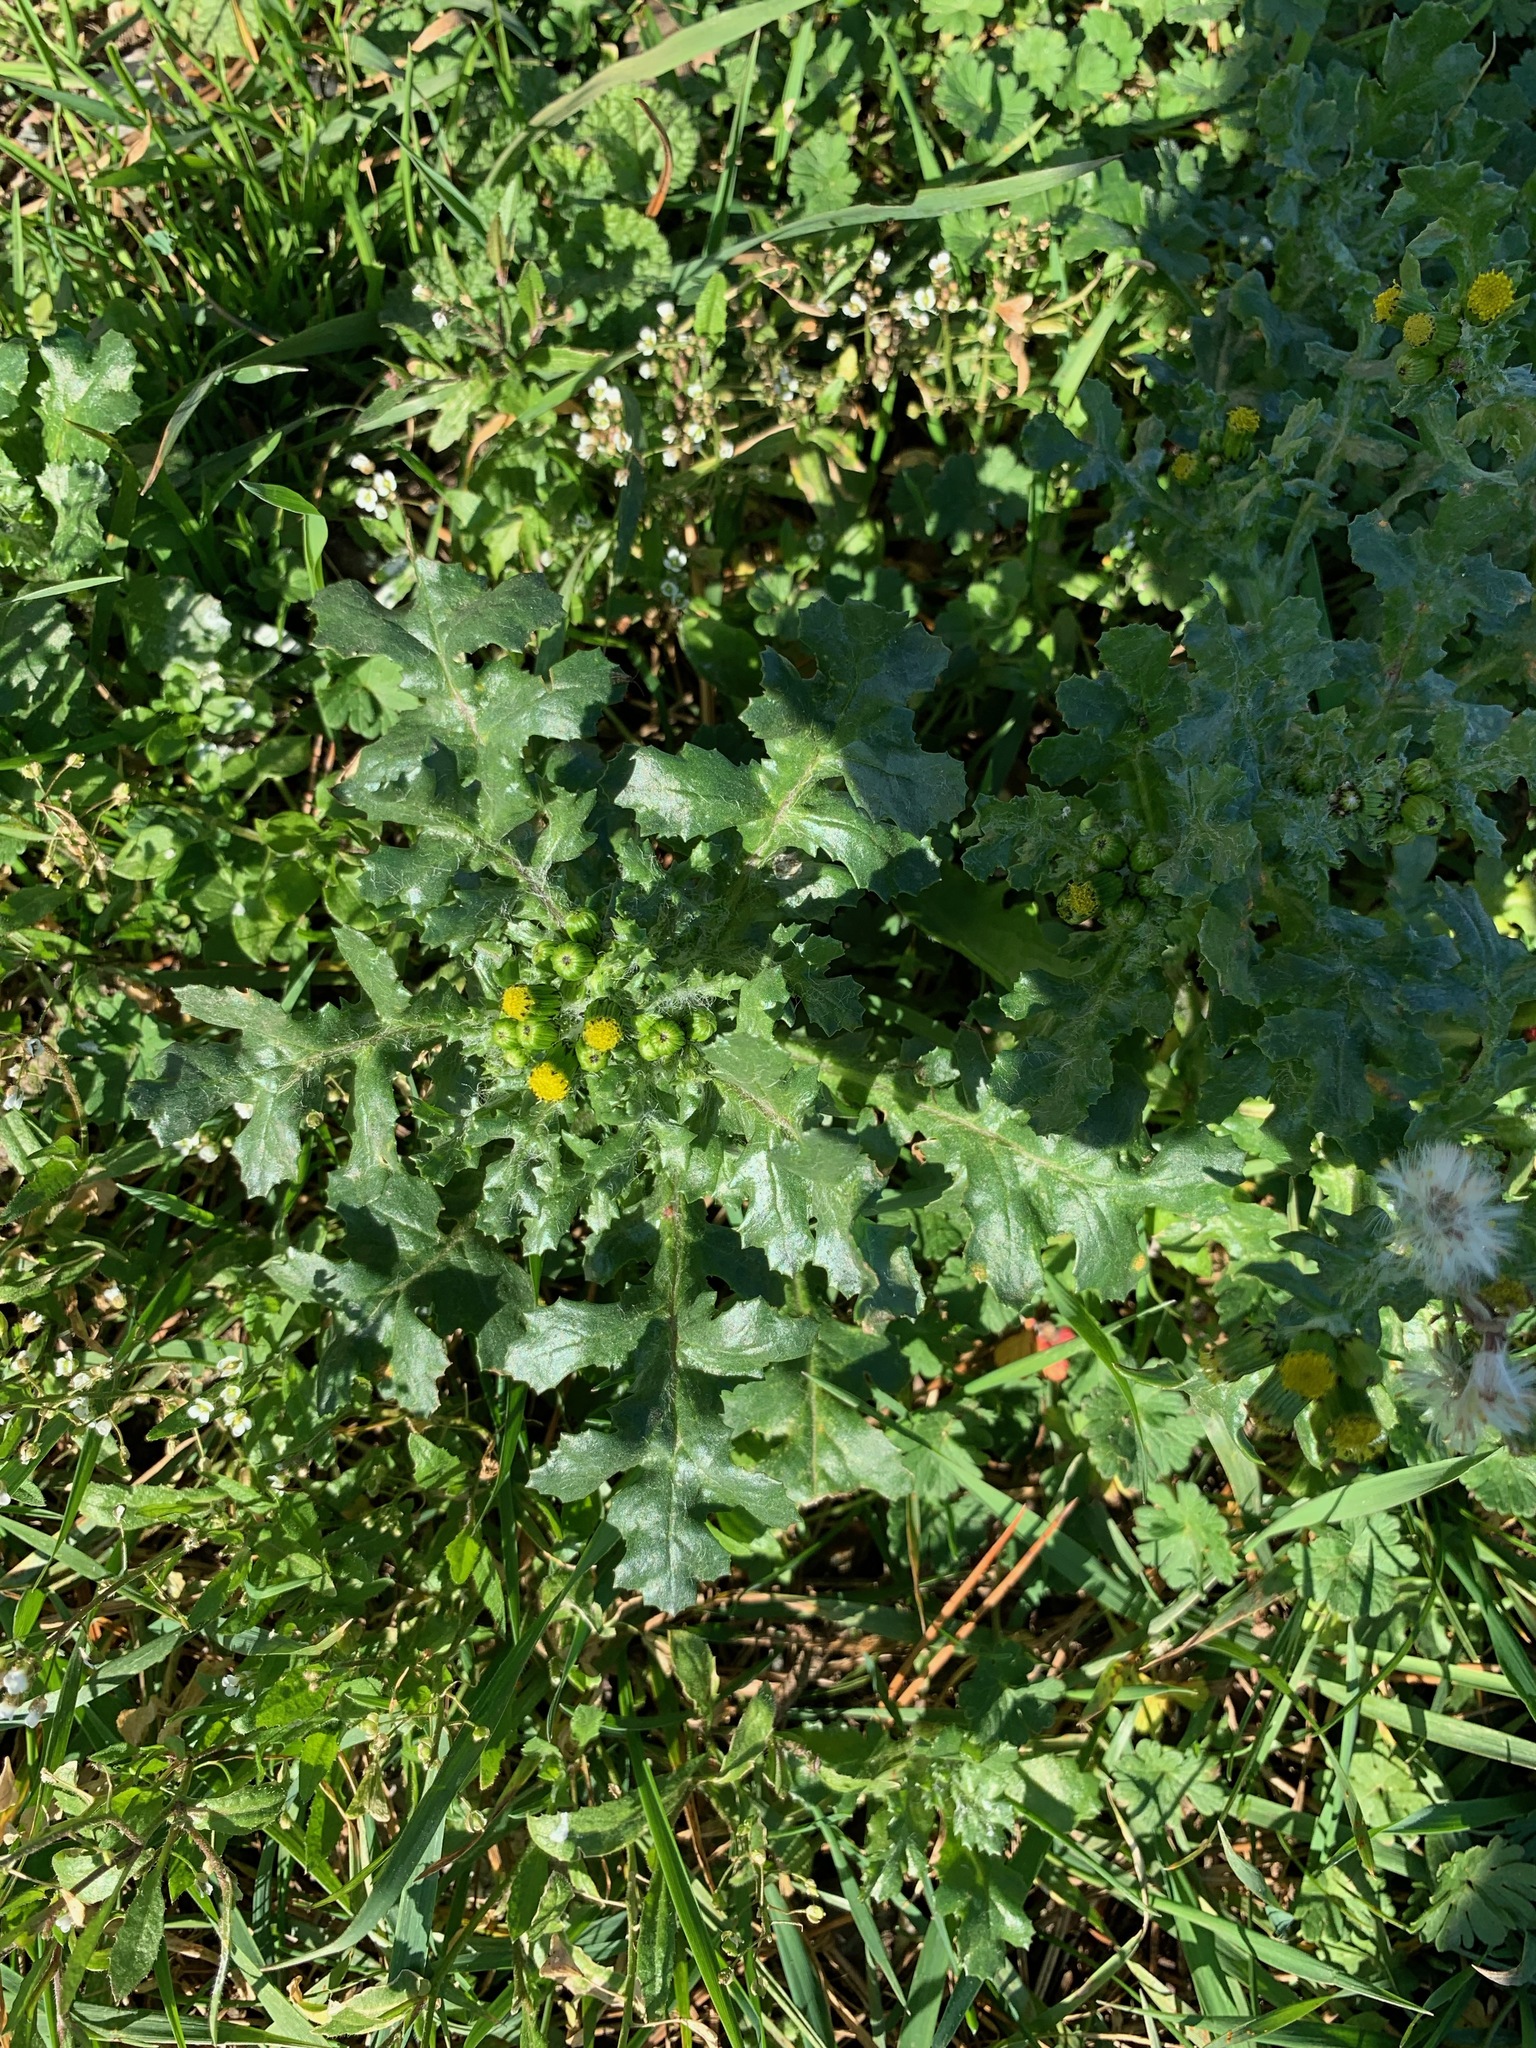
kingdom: Plantae
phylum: Tracheophyta
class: Magnoliopsida
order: Asterales
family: Asteraceae
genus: Senecio
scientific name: Senecio vulgaris
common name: Old-man-in-the-spring
